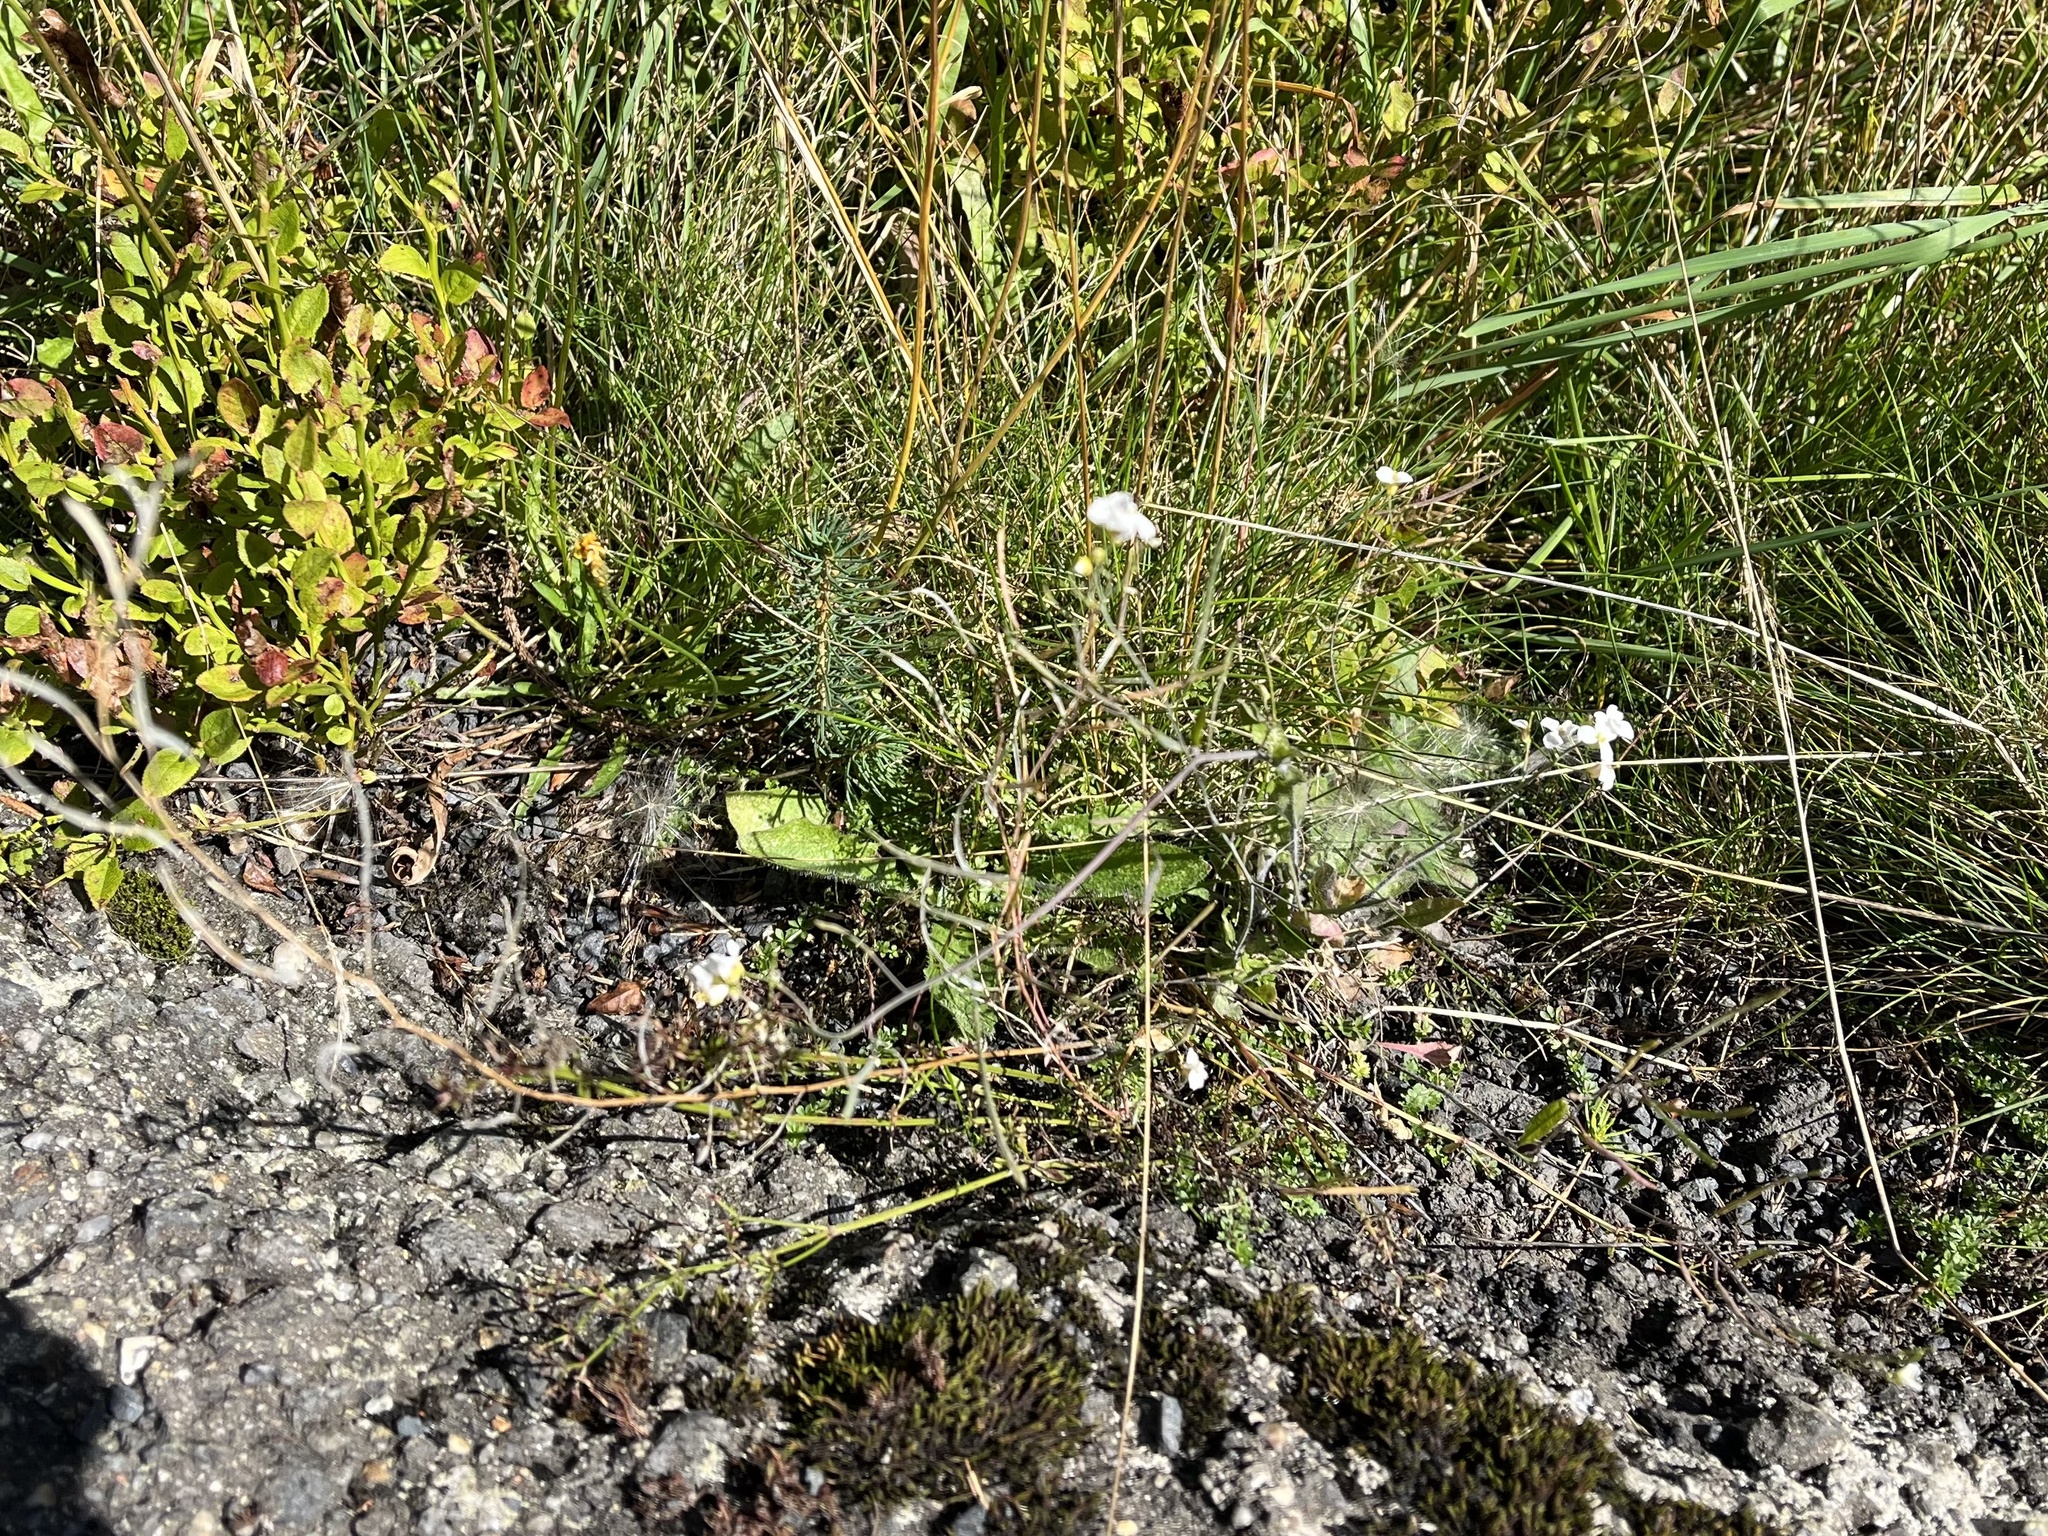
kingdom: Plantae
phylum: Tracheophyta
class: Magnoliopsida
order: Brassicales
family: Brassicaceae
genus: Arabidopsis
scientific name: Arabidopsis arenosa
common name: Sand rock-cress
